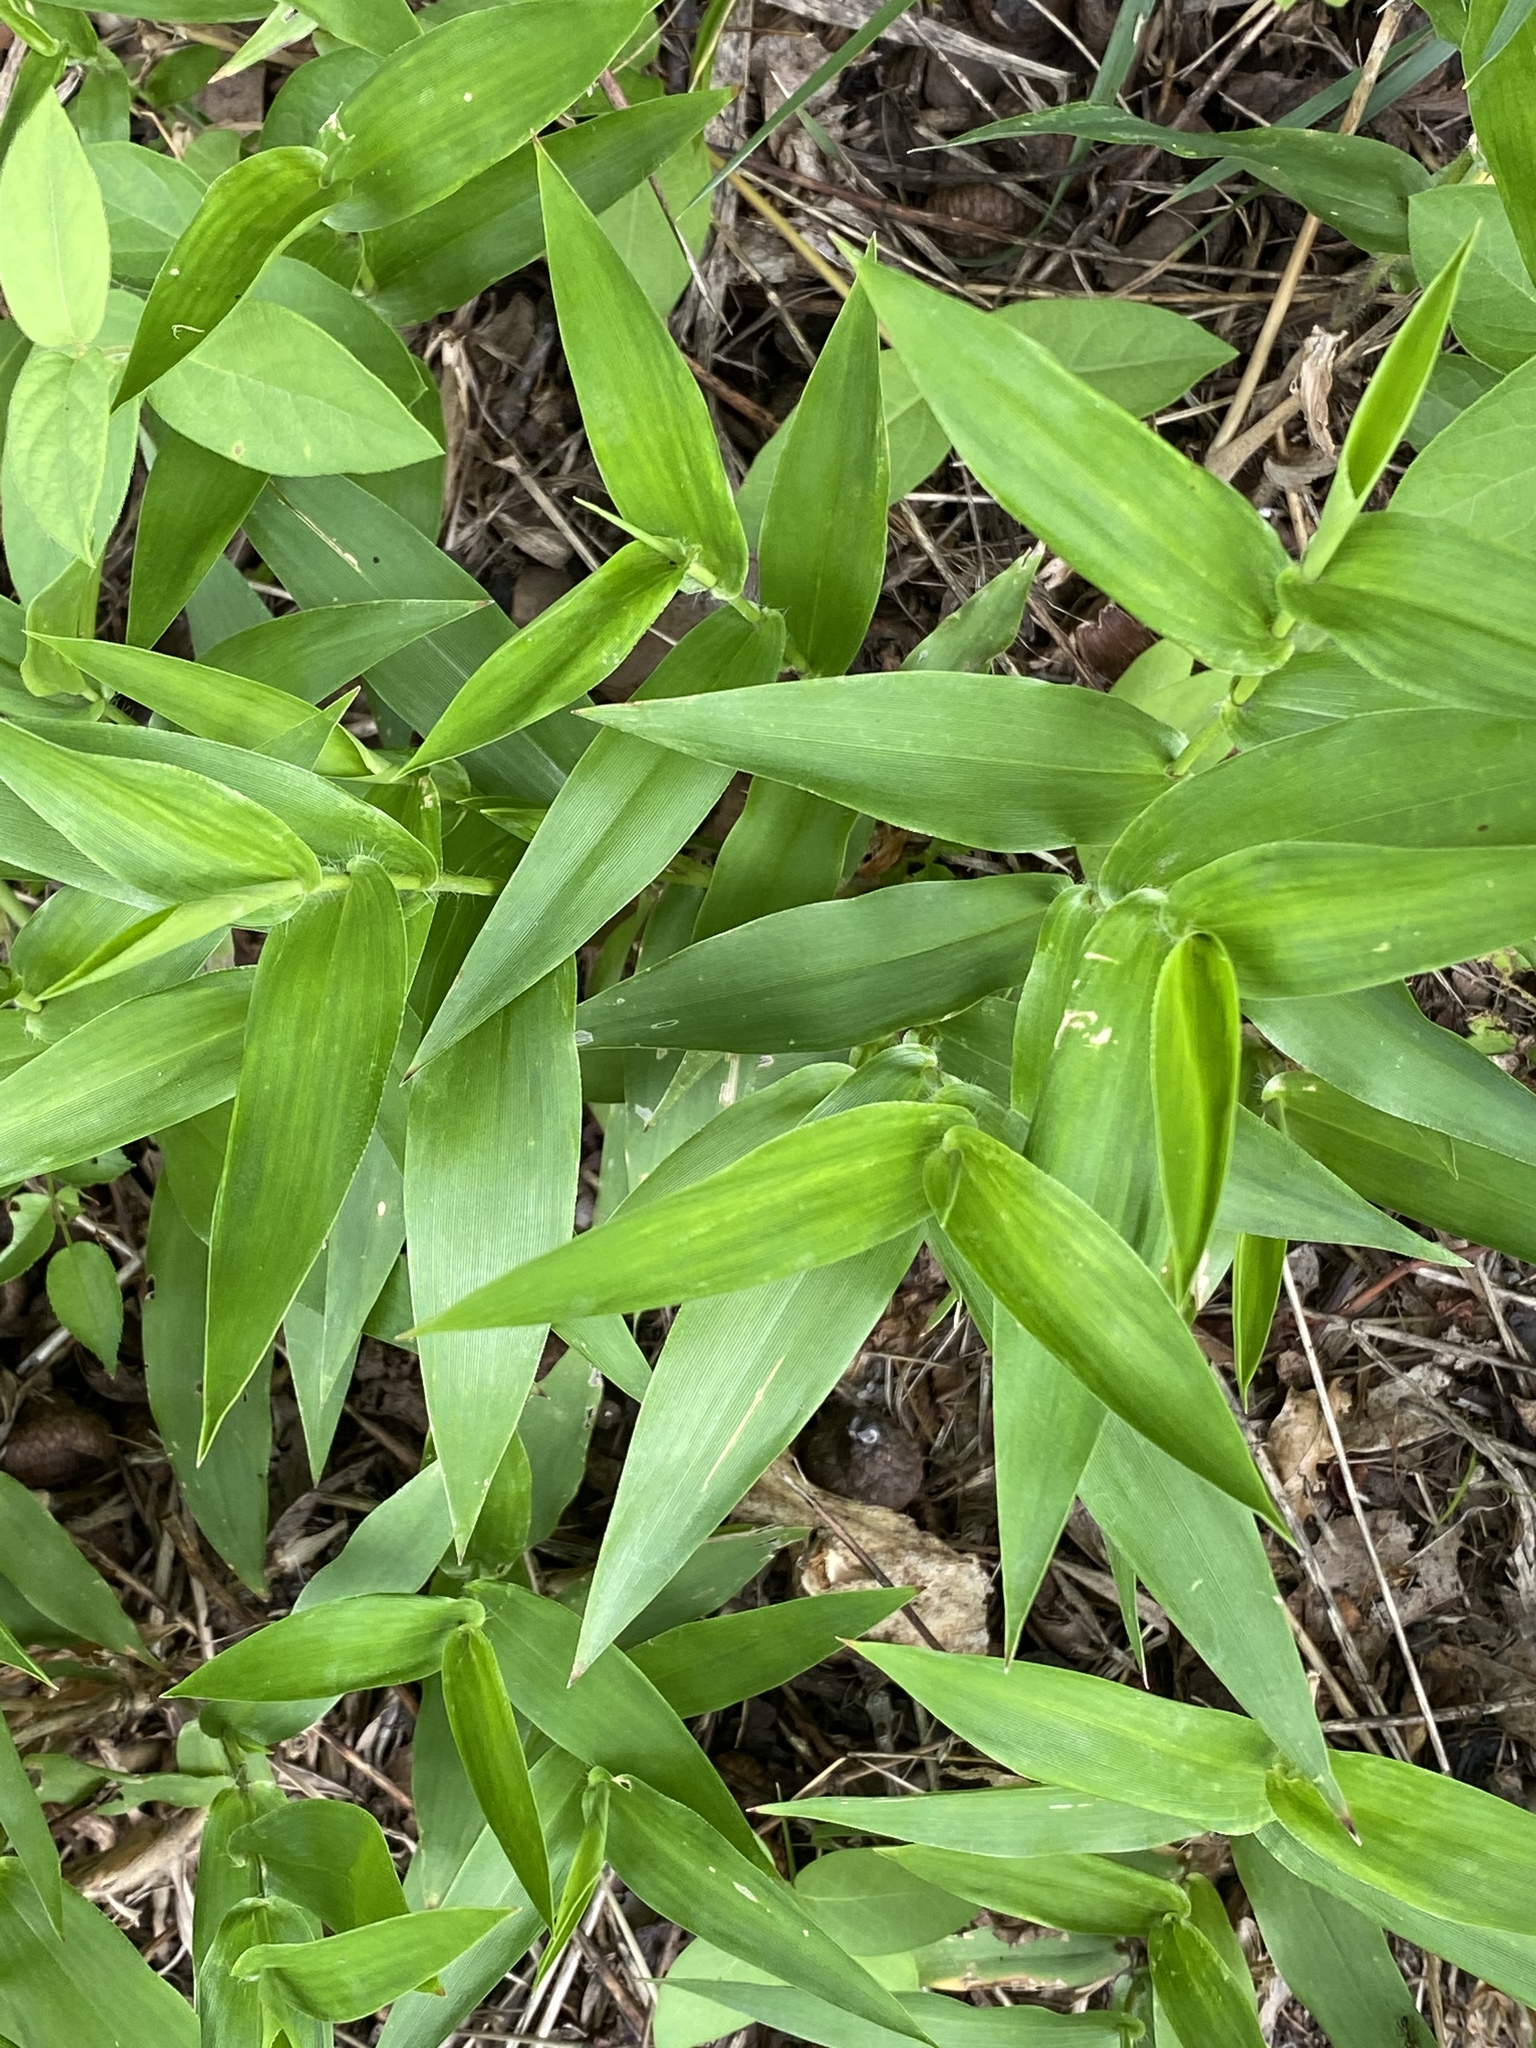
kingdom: Plantae
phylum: Tracheophyta
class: Liliopsida
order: Poales
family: Poaceae
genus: Dichanthelium
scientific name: Dichanthelium clandestinum
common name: Deer-tongue grass
